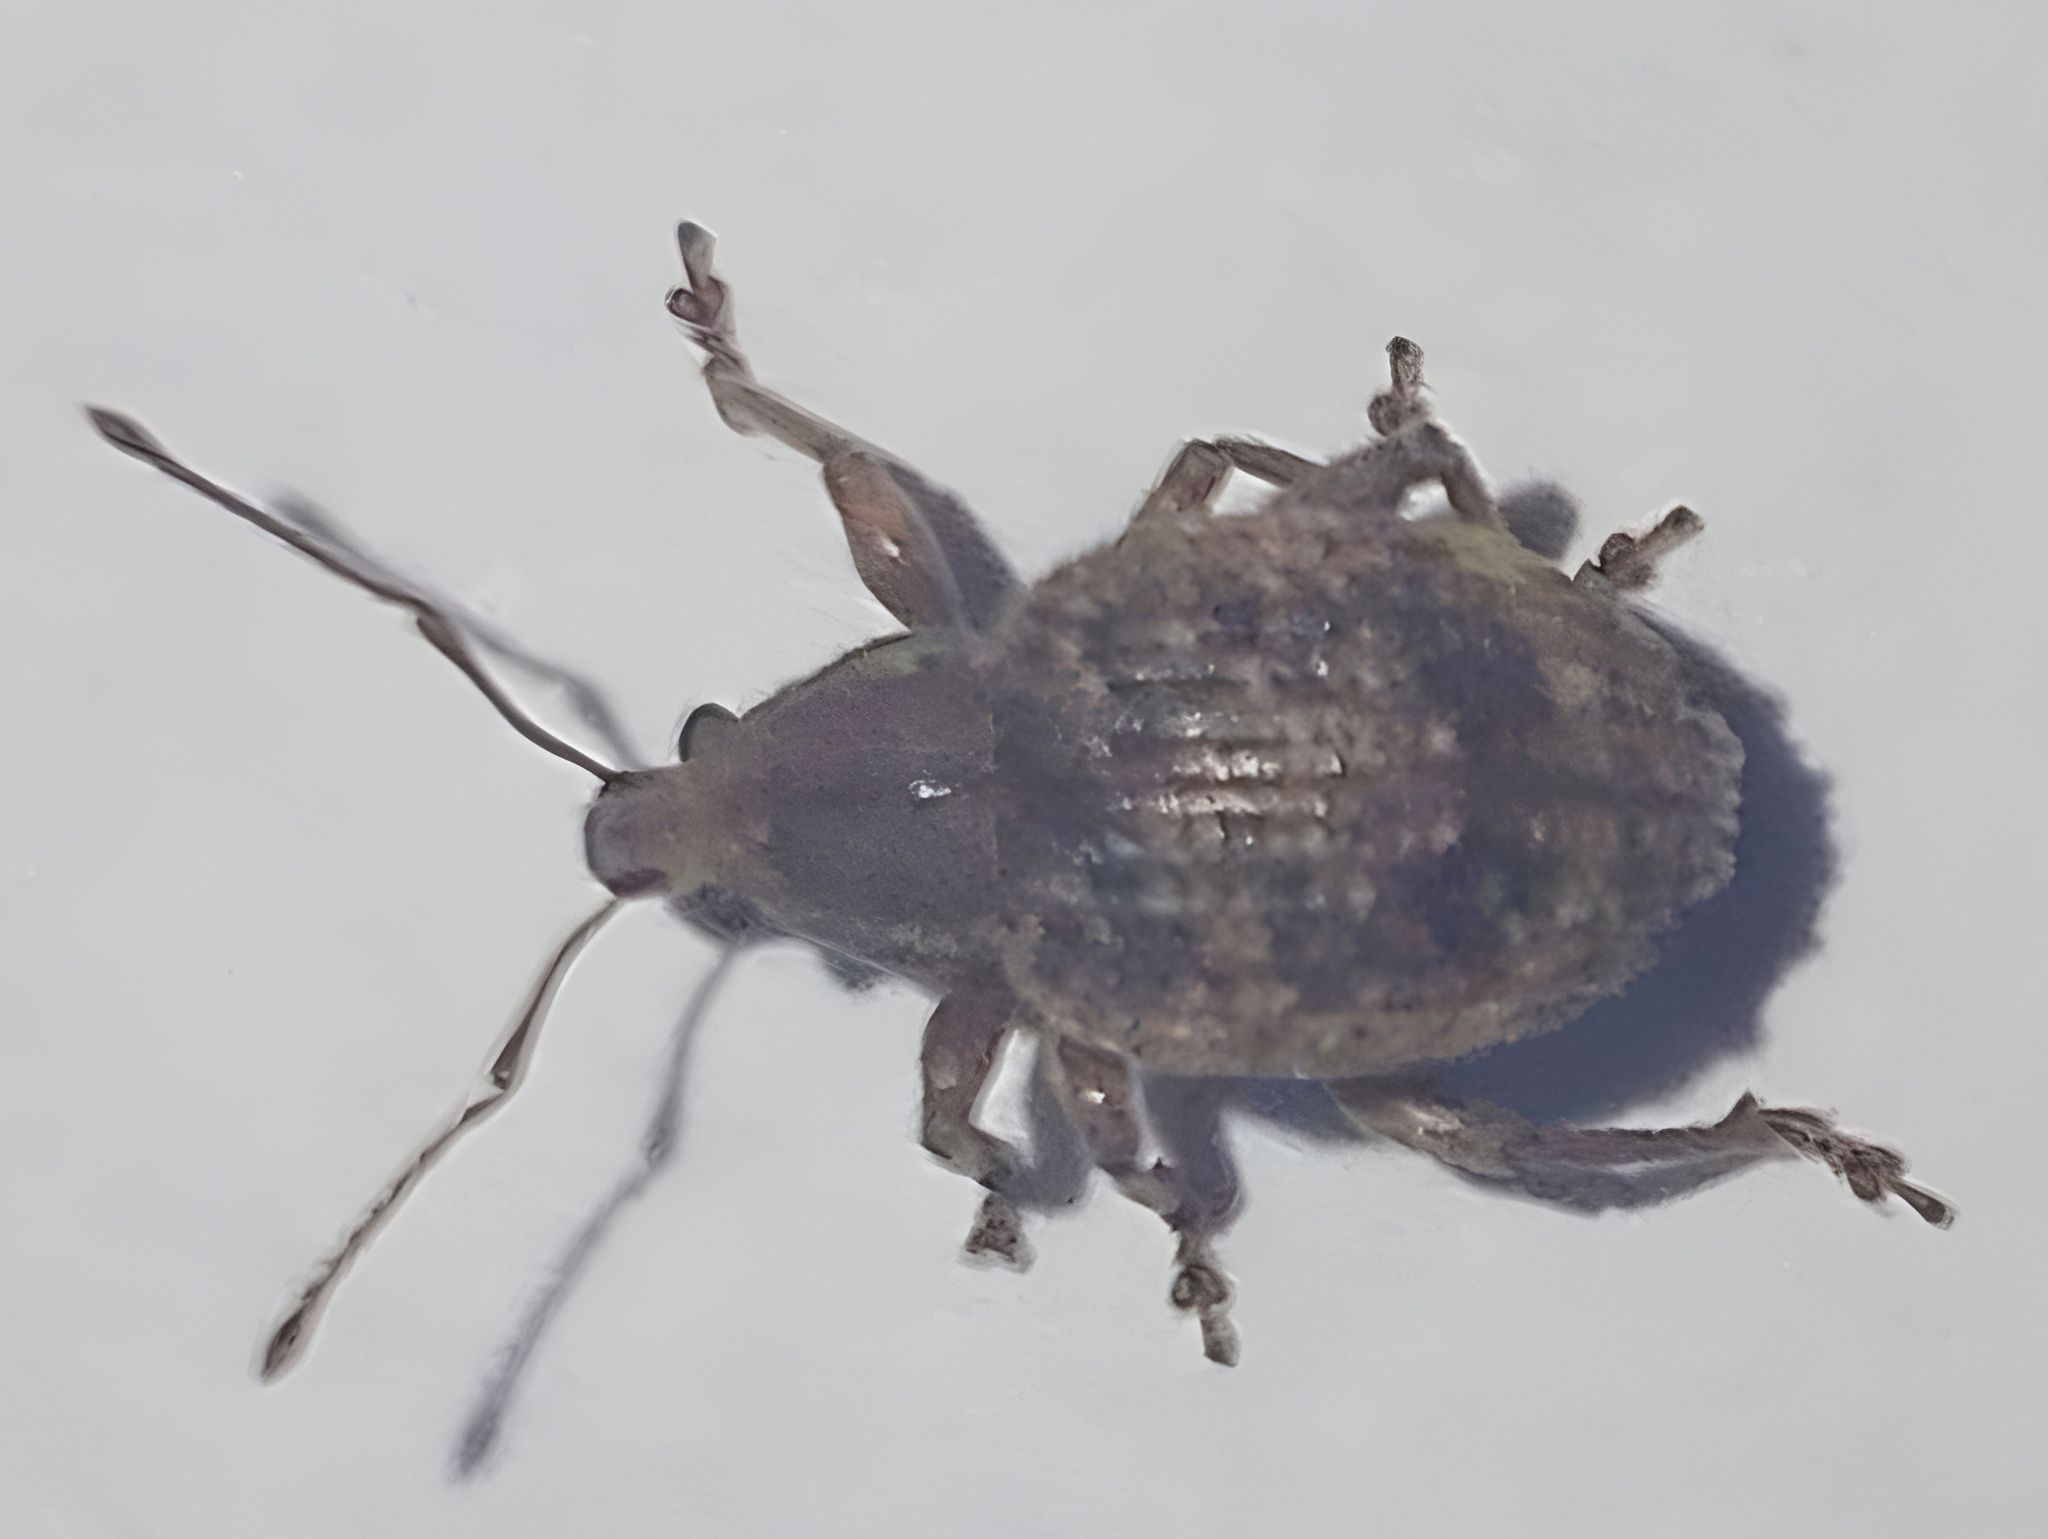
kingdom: Animalia
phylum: Arthropoda
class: Insecta
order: Coleoptera
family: Curculionidae
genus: Phlyctinus
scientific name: Phlyctinus callosus
